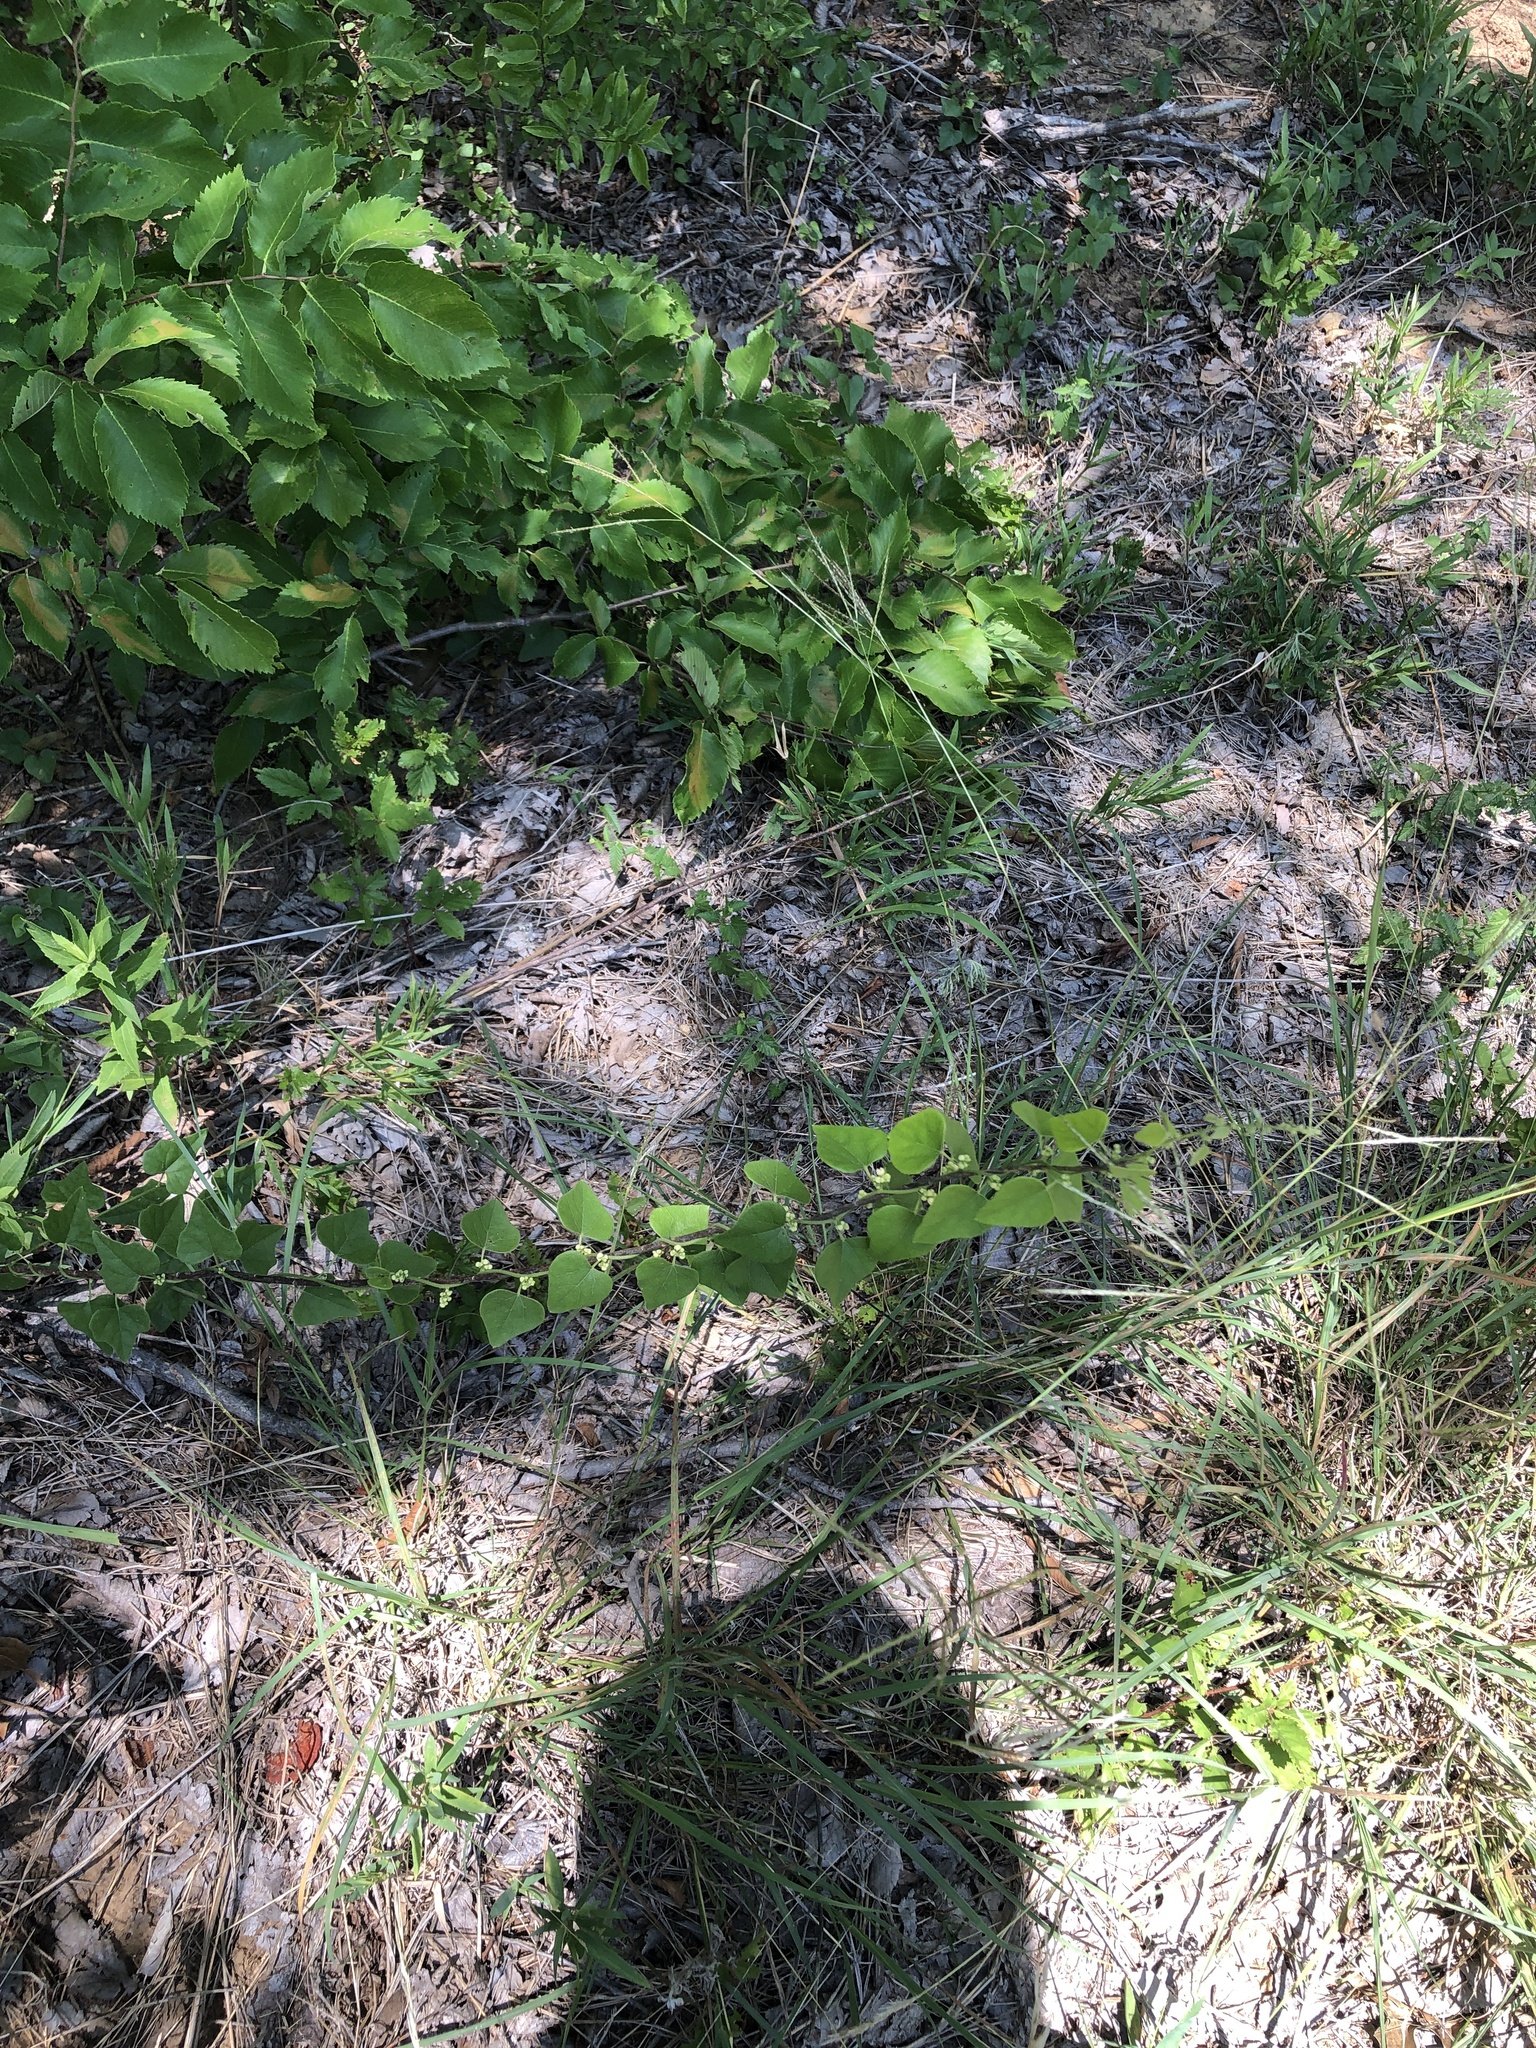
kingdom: Plantae
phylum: Tracheophyta
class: Magnoliopsida
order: Ranunculales
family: Menispermaceae
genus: Cocculus
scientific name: Cocculus carolinus
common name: Carolina moonseed
